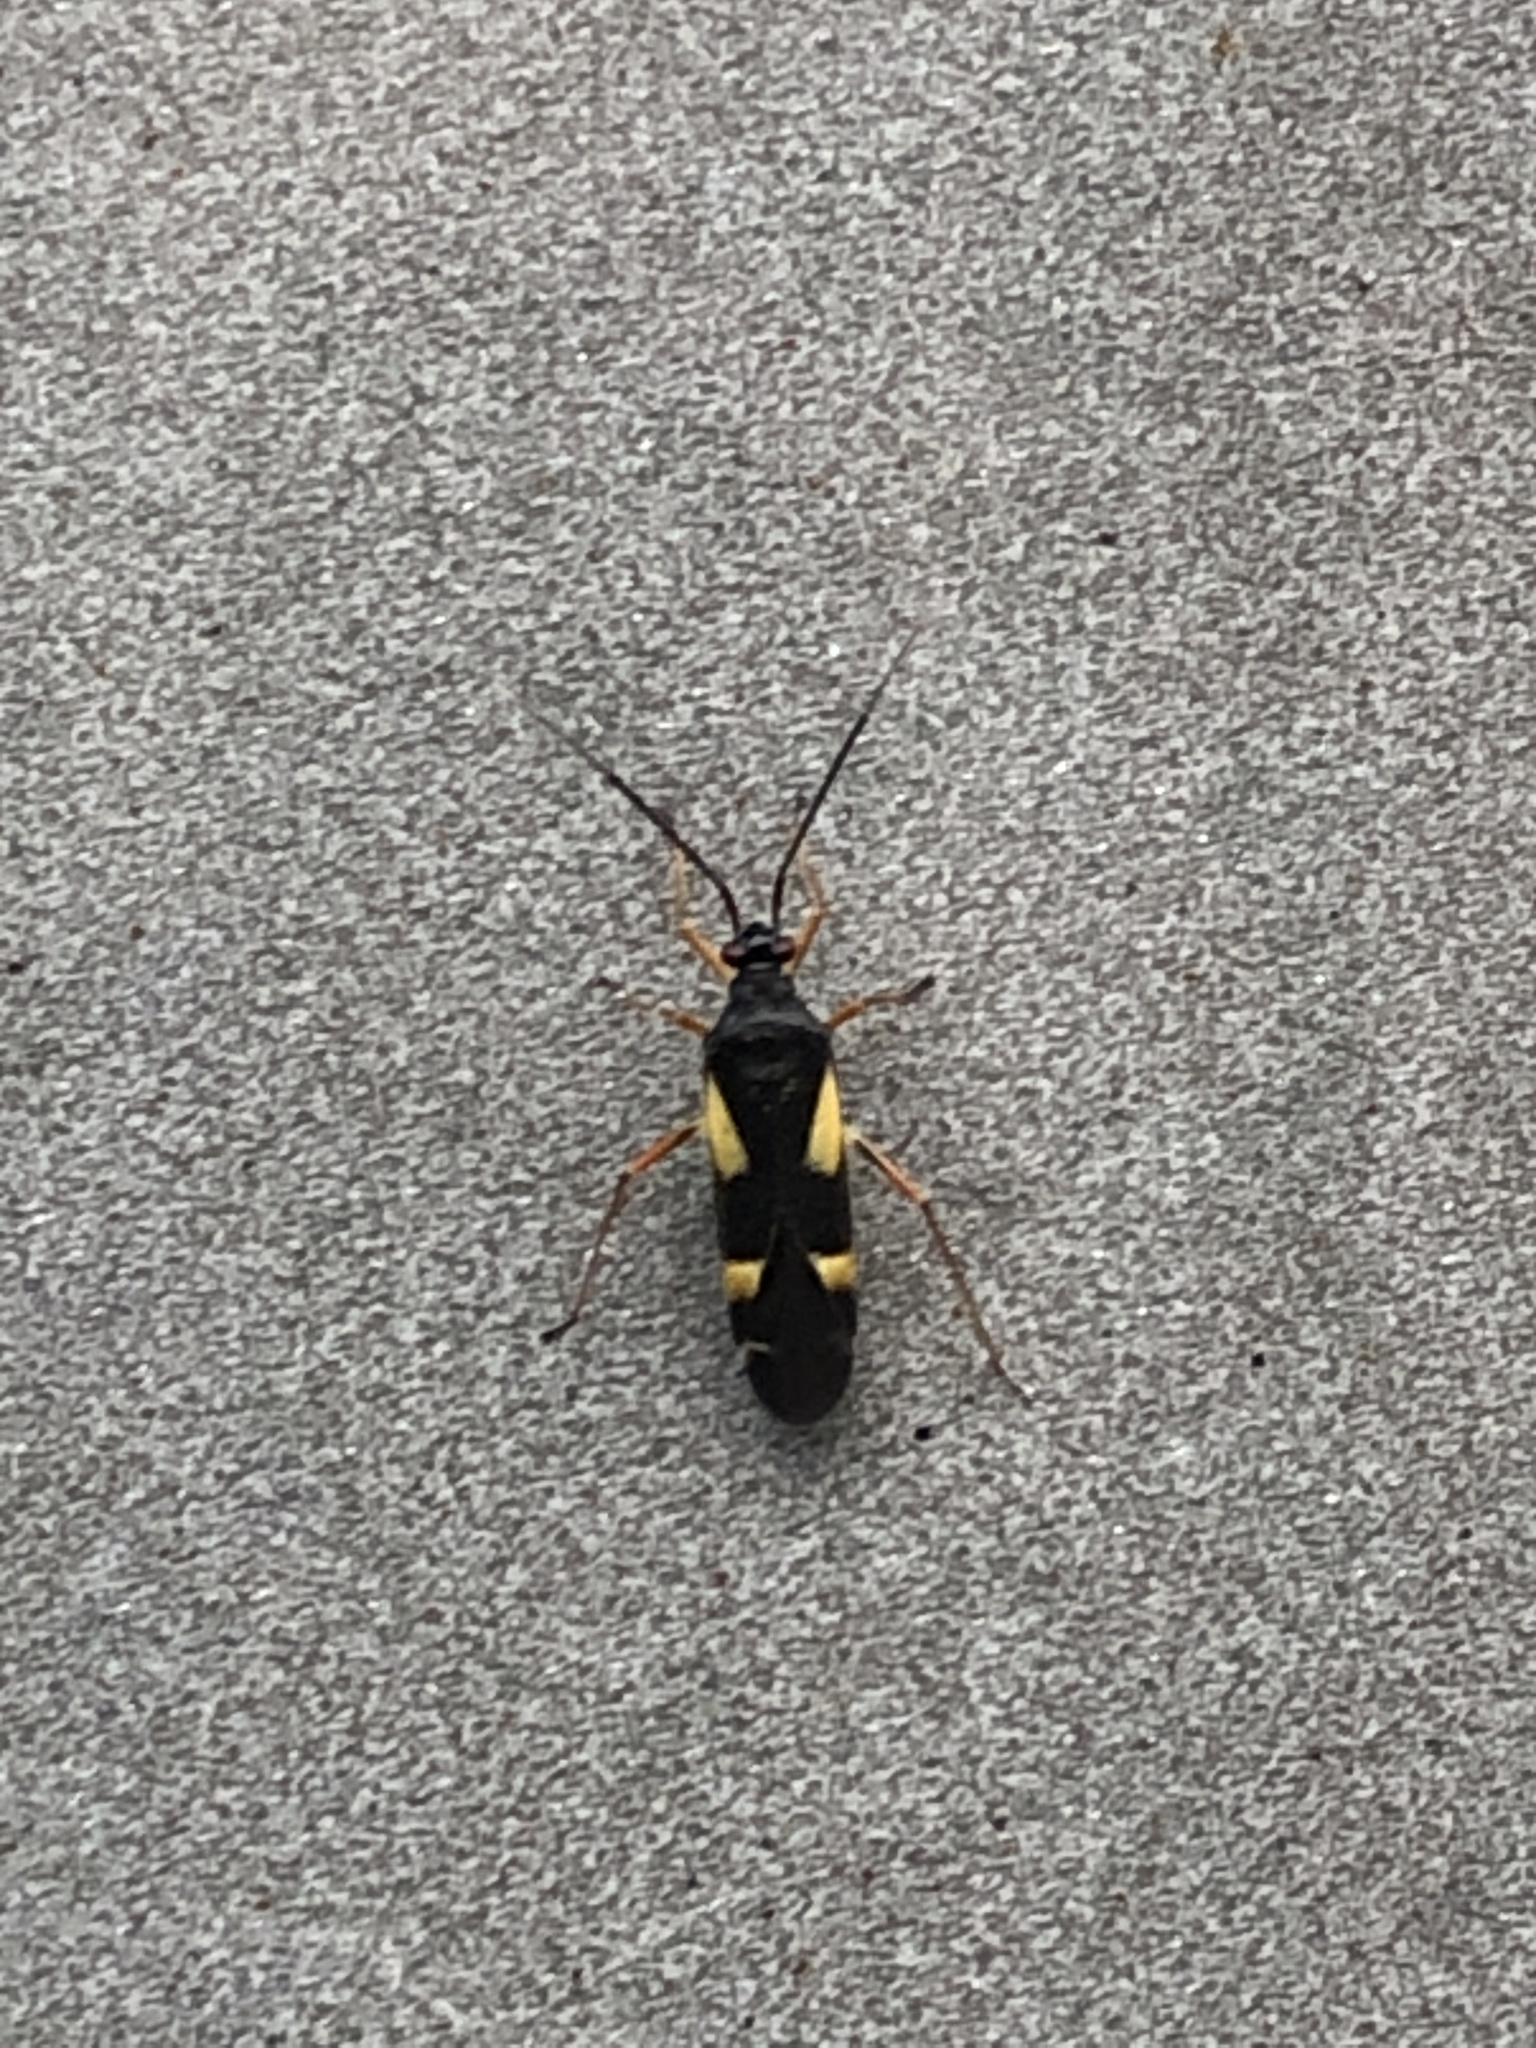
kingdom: Animalia
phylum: Arthropoda
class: Insecta
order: Hemiptera
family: Miridae
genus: Dryophilocoris
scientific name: Dryophilocoris flavoquadrimaculatus
